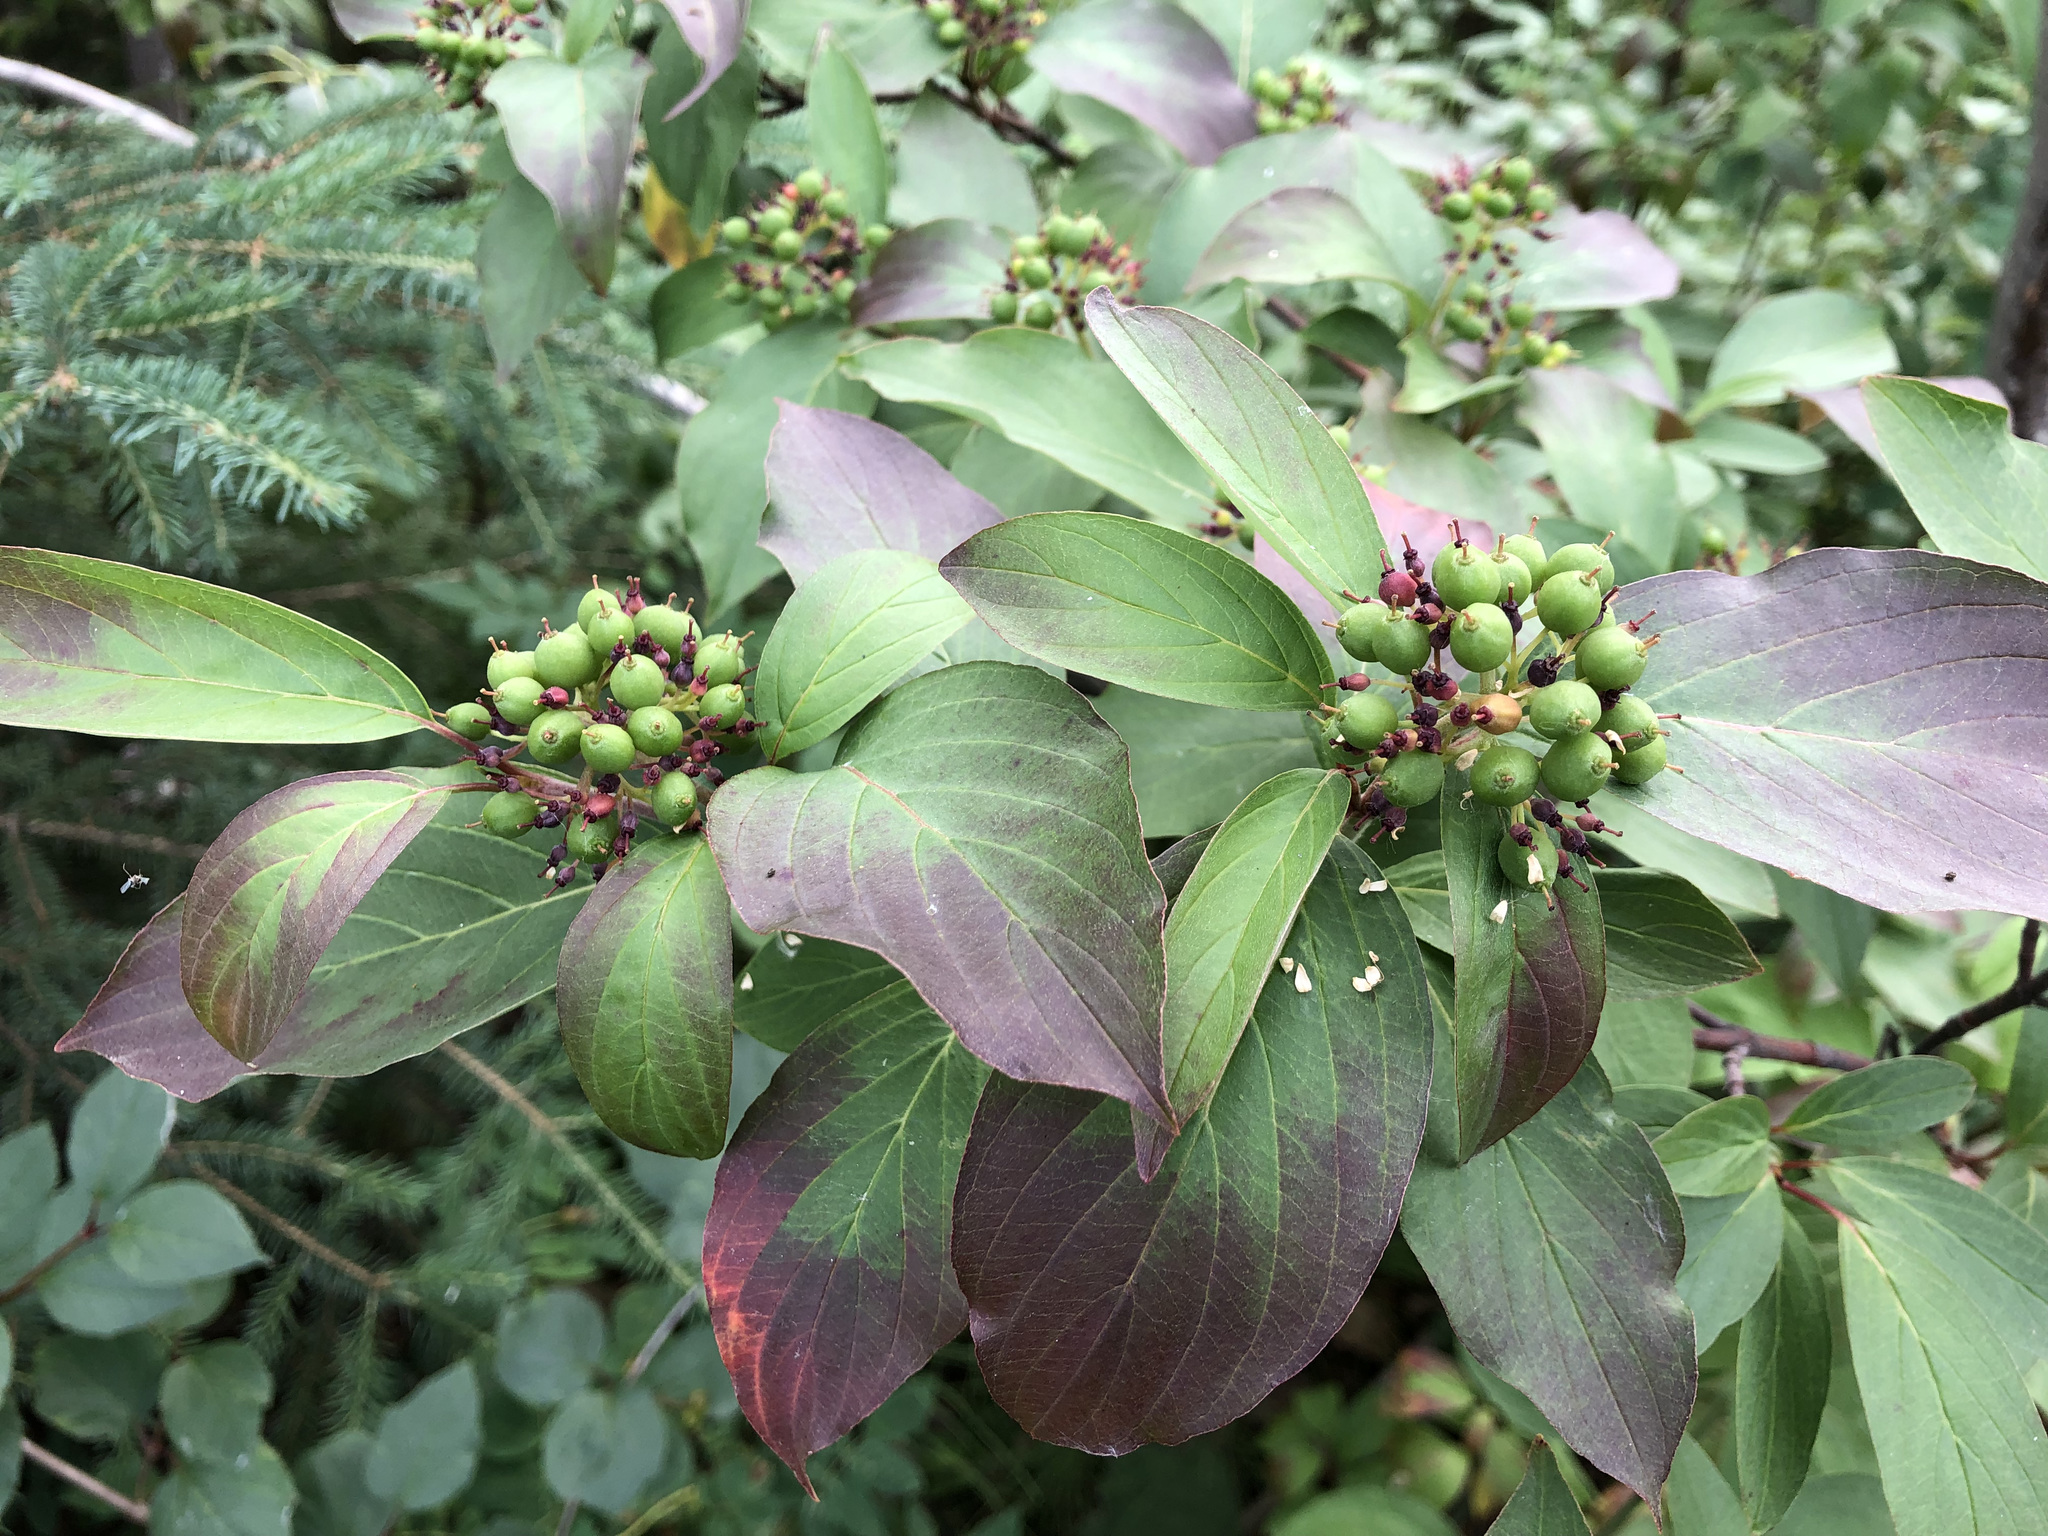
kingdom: Plantae
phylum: Tracheophyta
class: Magnoliopsida
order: Cornales
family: Cornaceae
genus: Cornus
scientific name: Cornus sericea
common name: Red-osier dogwood
